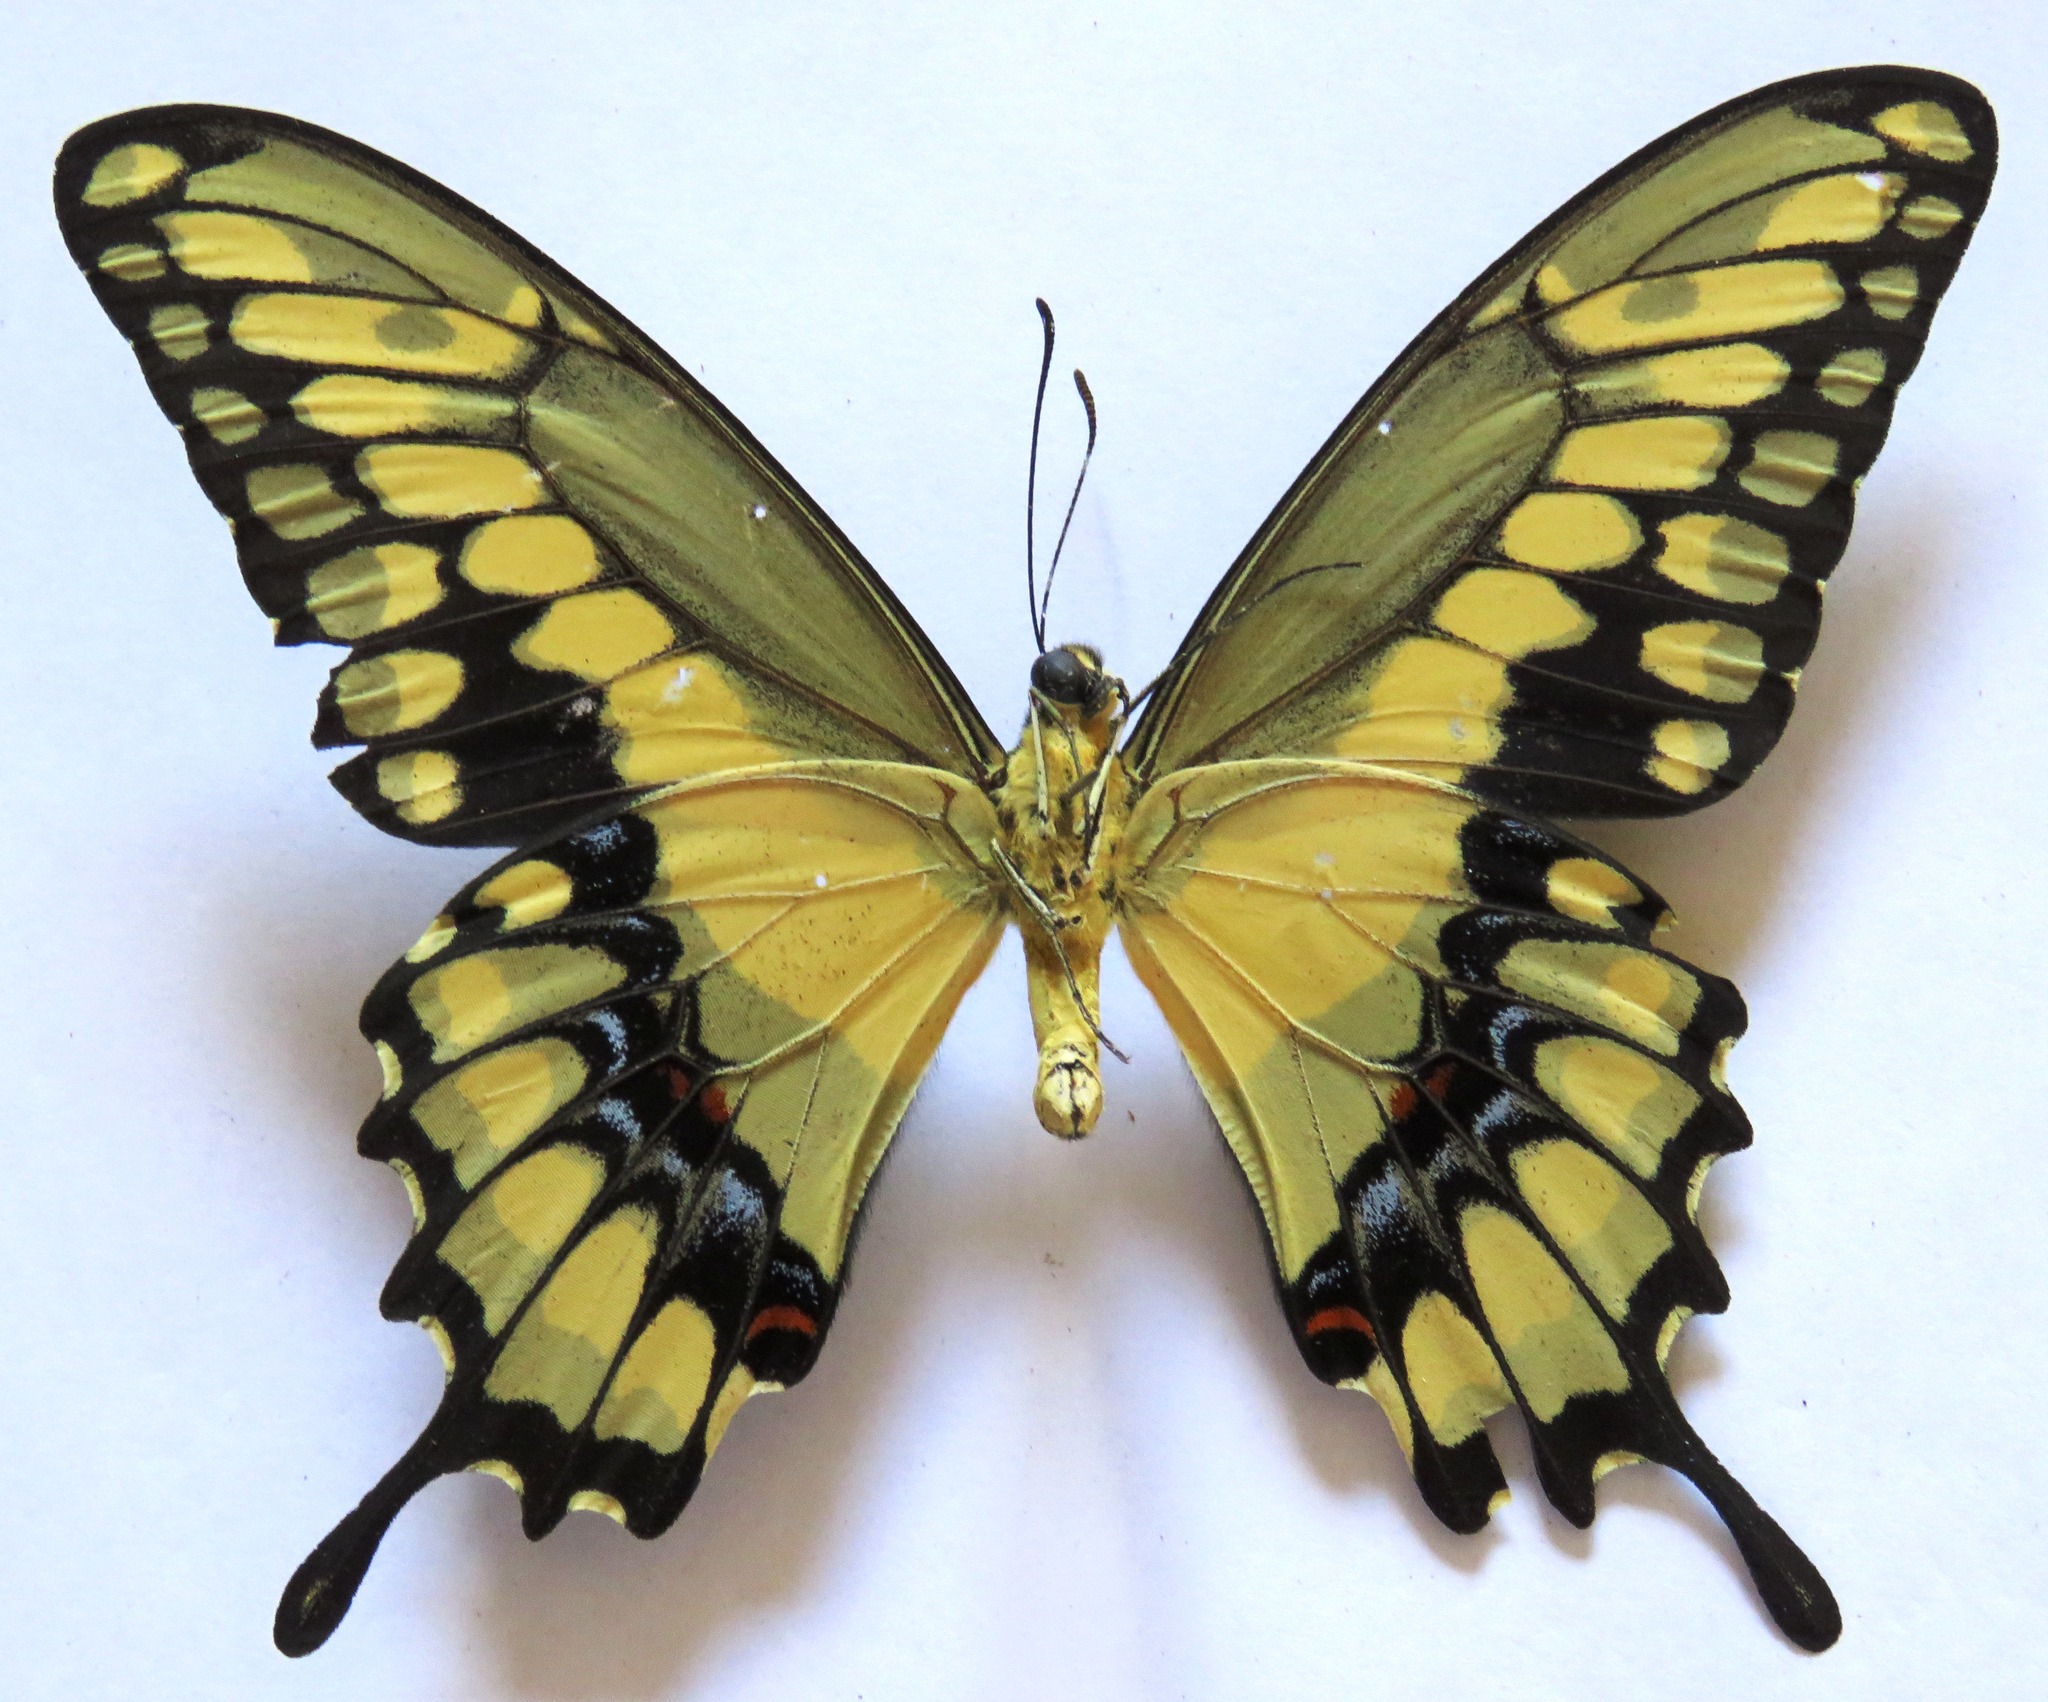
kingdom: Animalia
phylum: Arthropoda
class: Insecta
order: Lepidoptera
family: Papilionidae
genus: Papilio
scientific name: Papilio rumiko
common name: Western giant swallowtail
